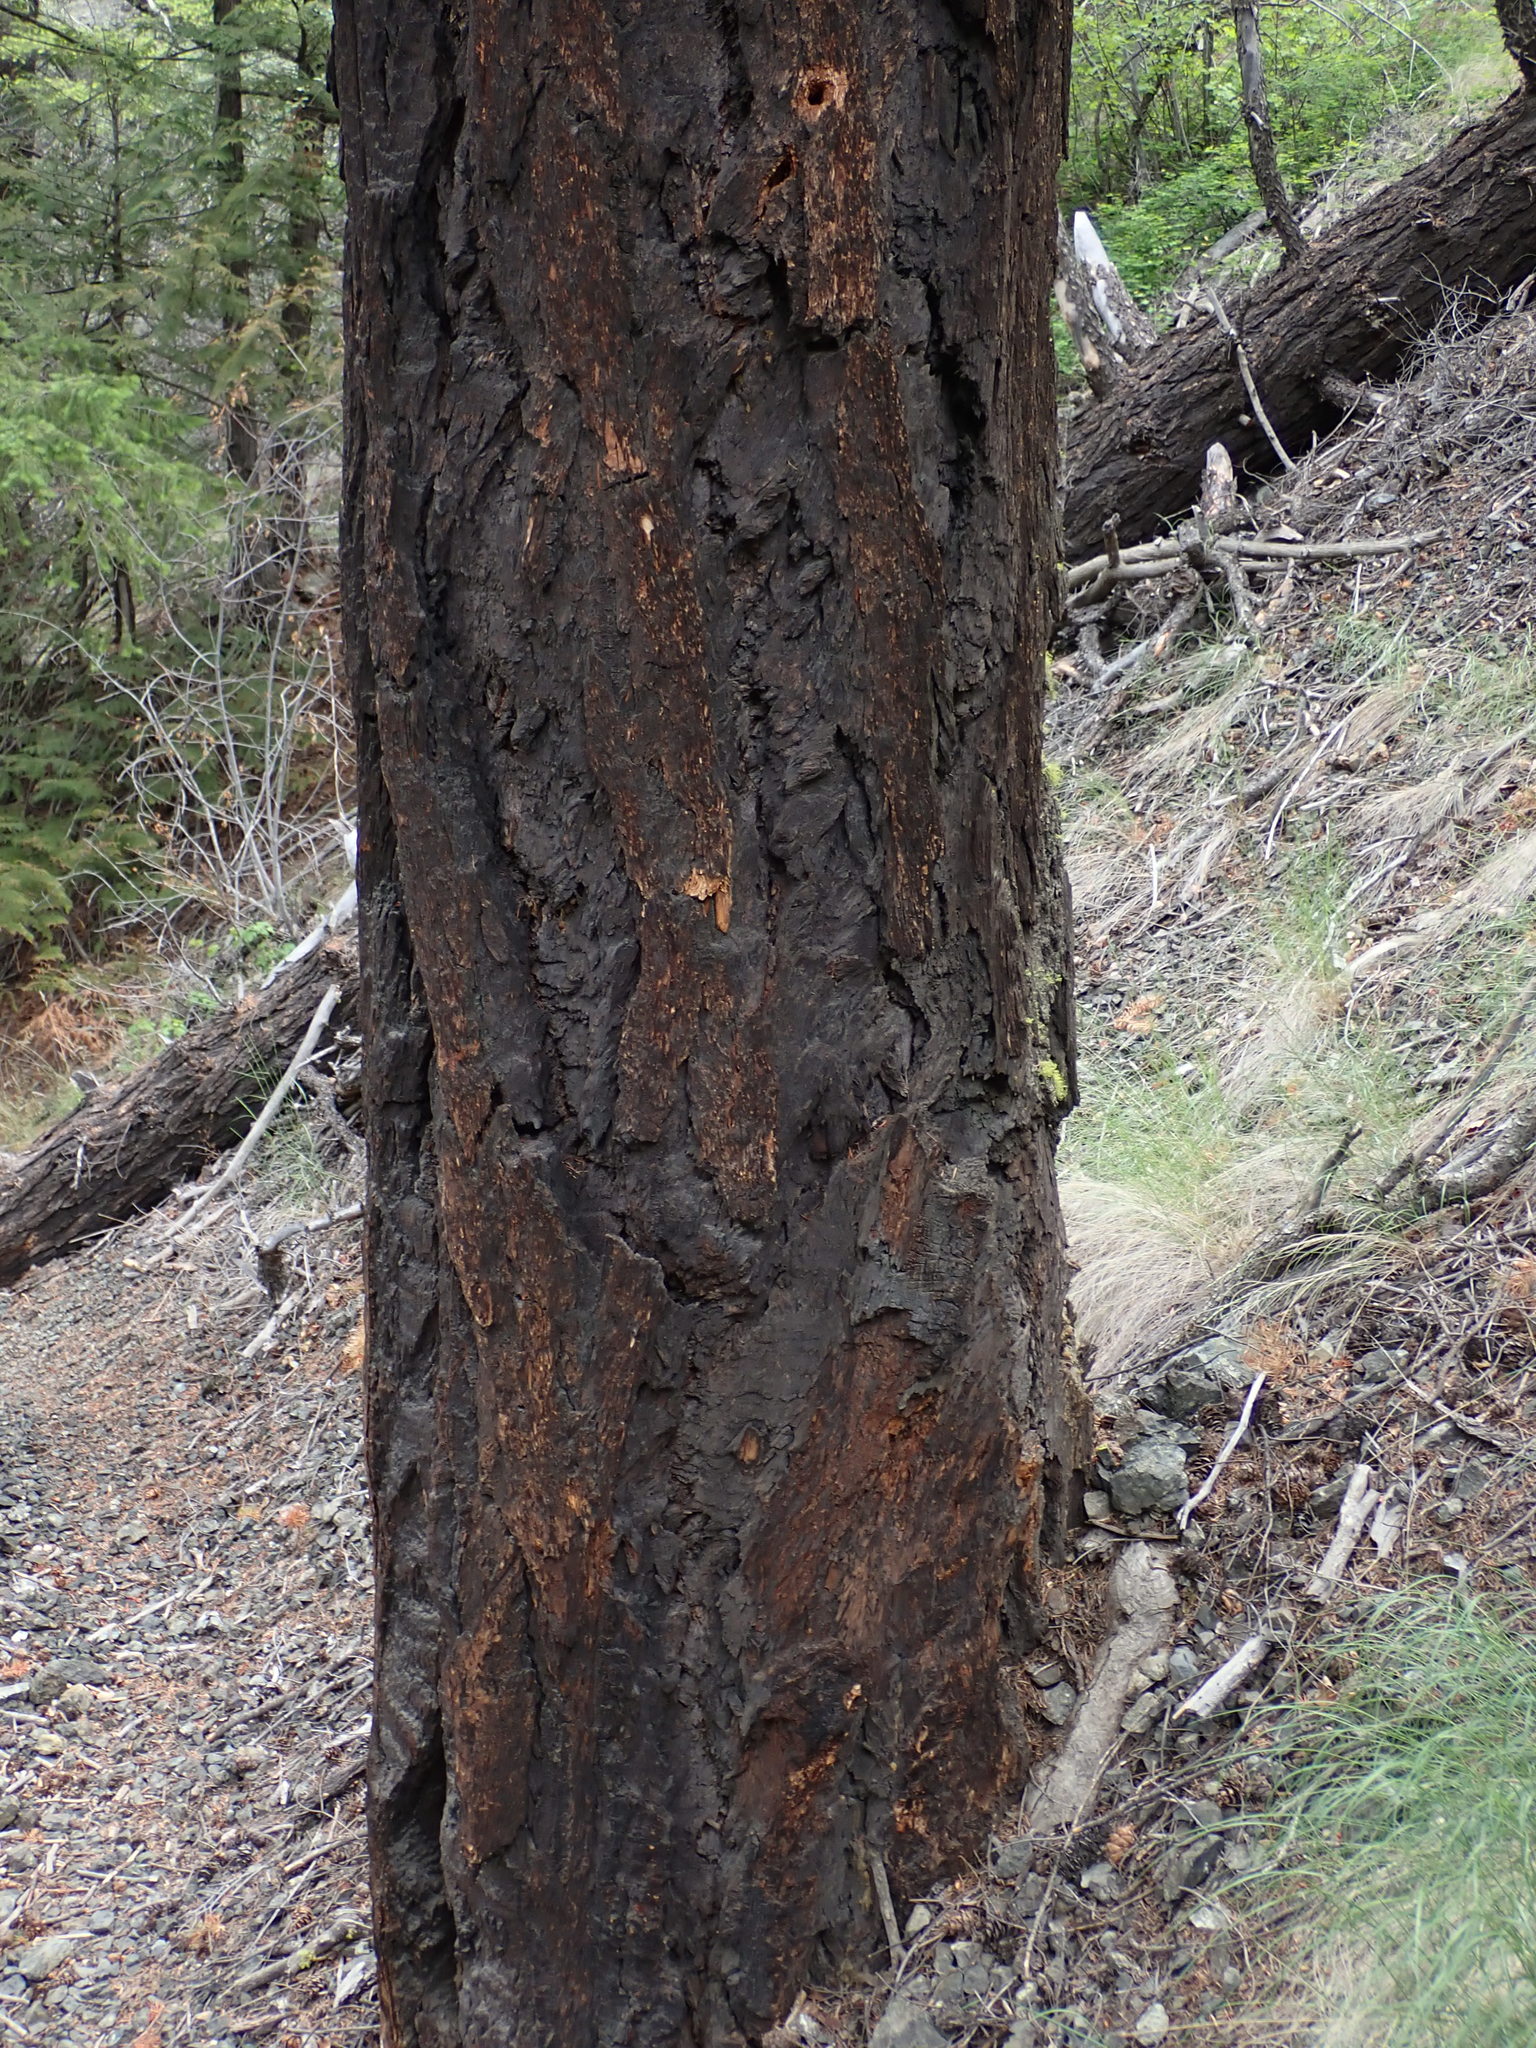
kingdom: Plantae
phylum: Tracheophyta
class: Pinopsida
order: Pinales
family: Pinaceae
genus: Pseudotsuga
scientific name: Pseudotsuga menziesii
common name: Douglas fir
